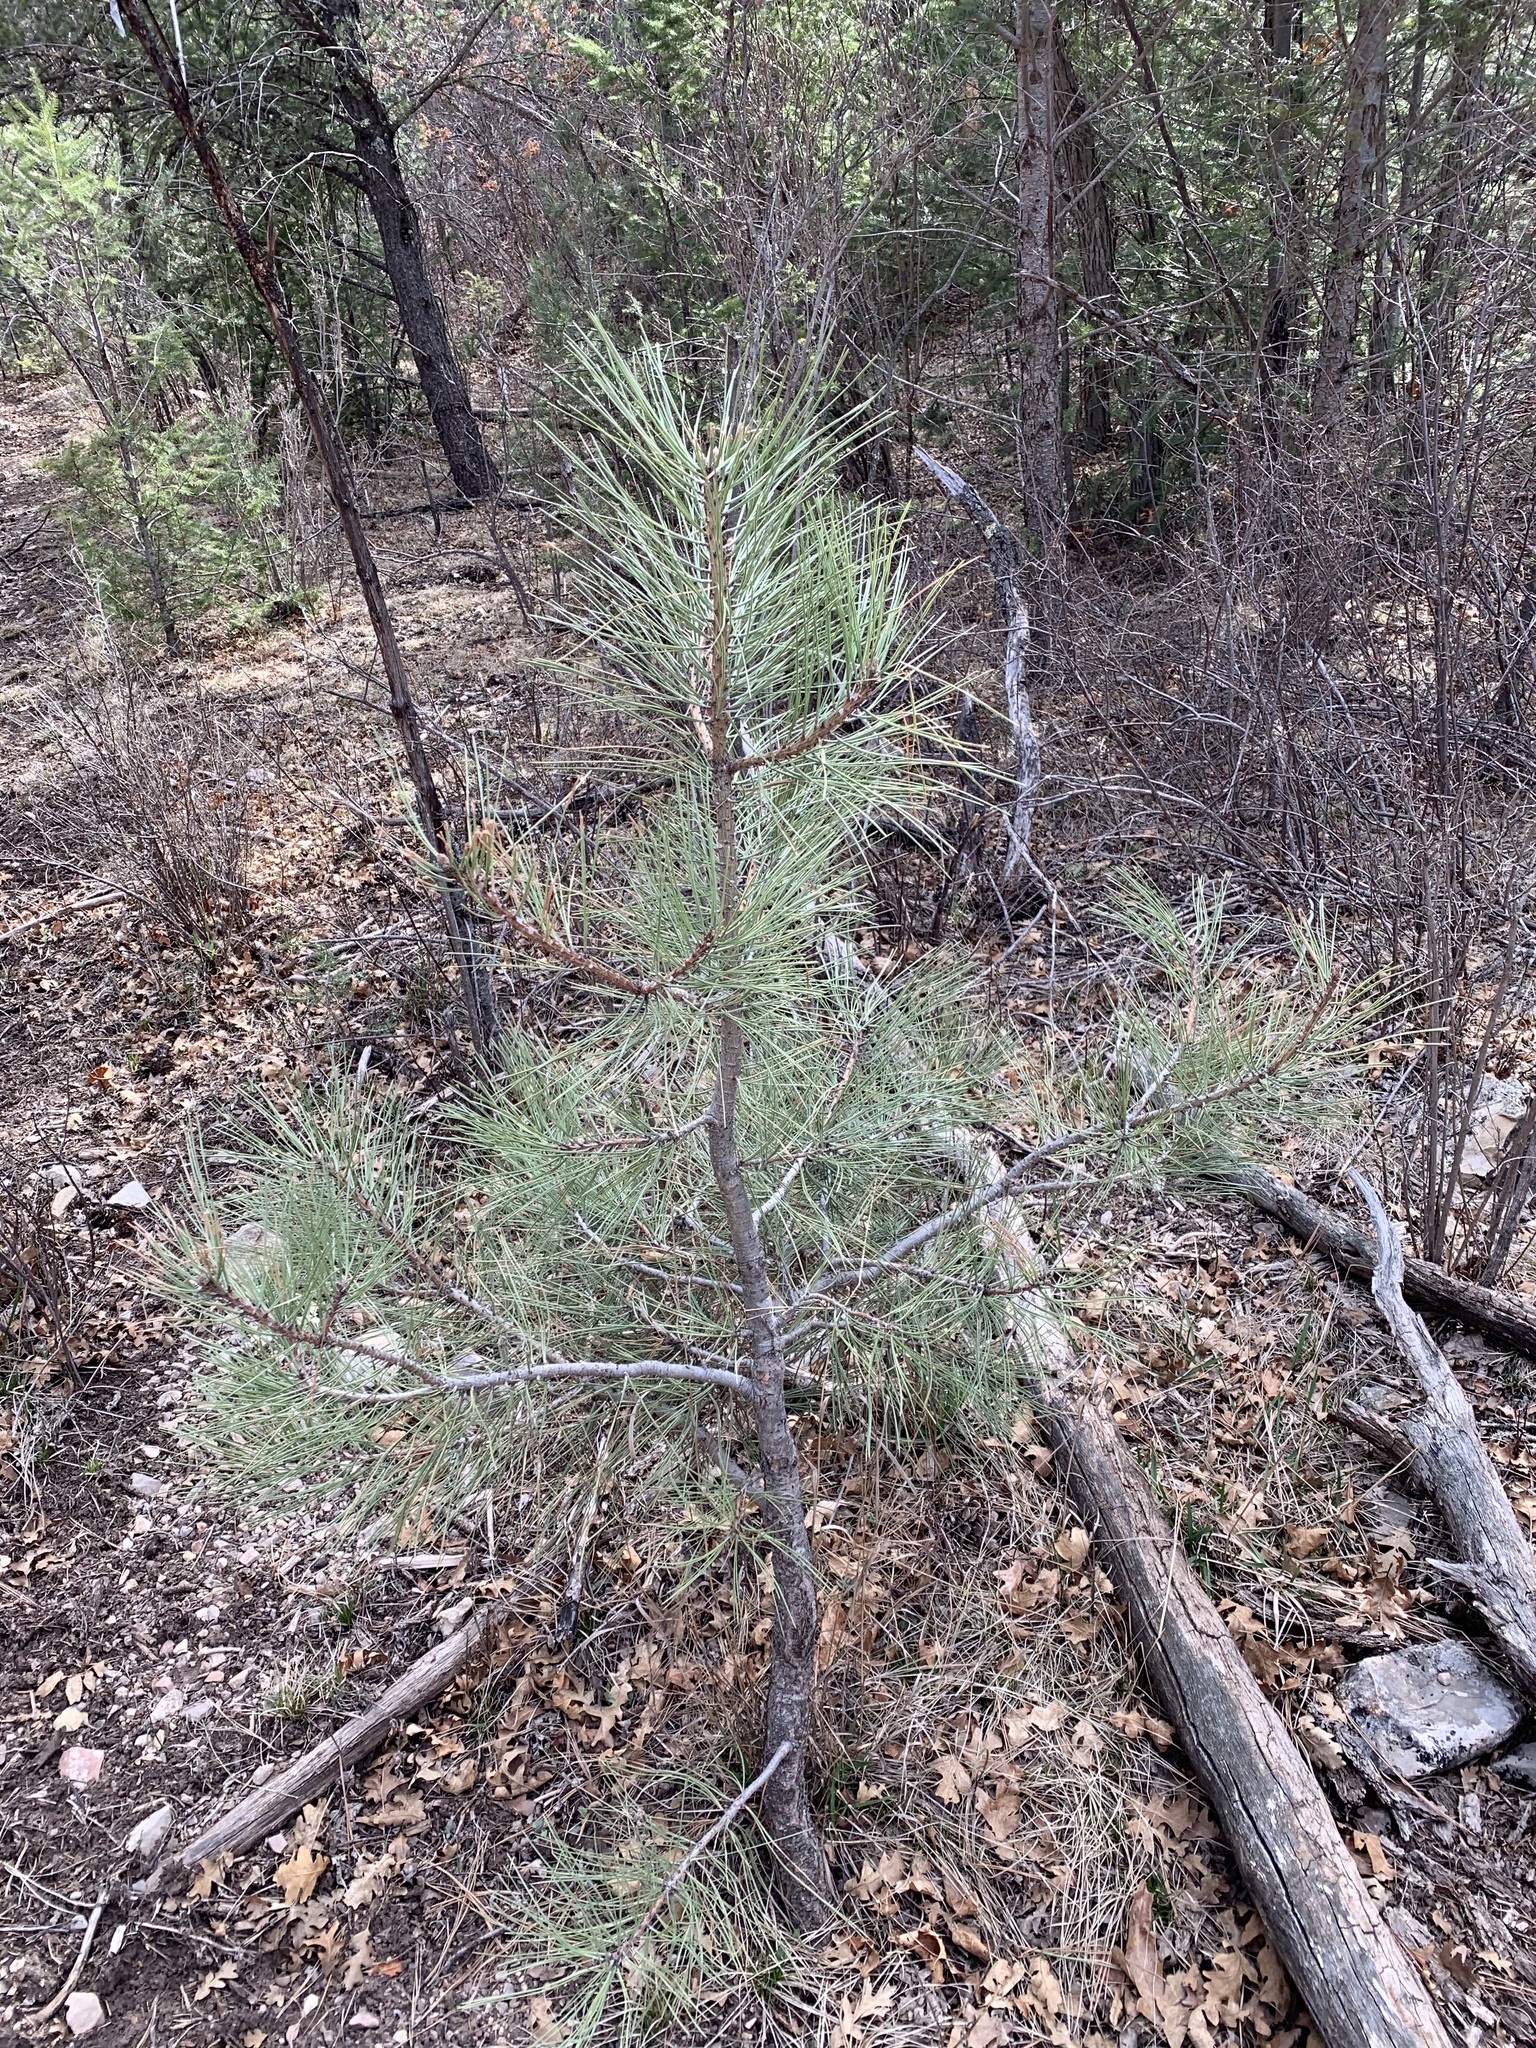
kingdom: Plantae
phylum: Tracheophyta
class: Pinopsida
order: Pinales
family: Pinaceae
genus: Pinus
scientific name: Pinus ponderosa
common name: Western yellow-pine
